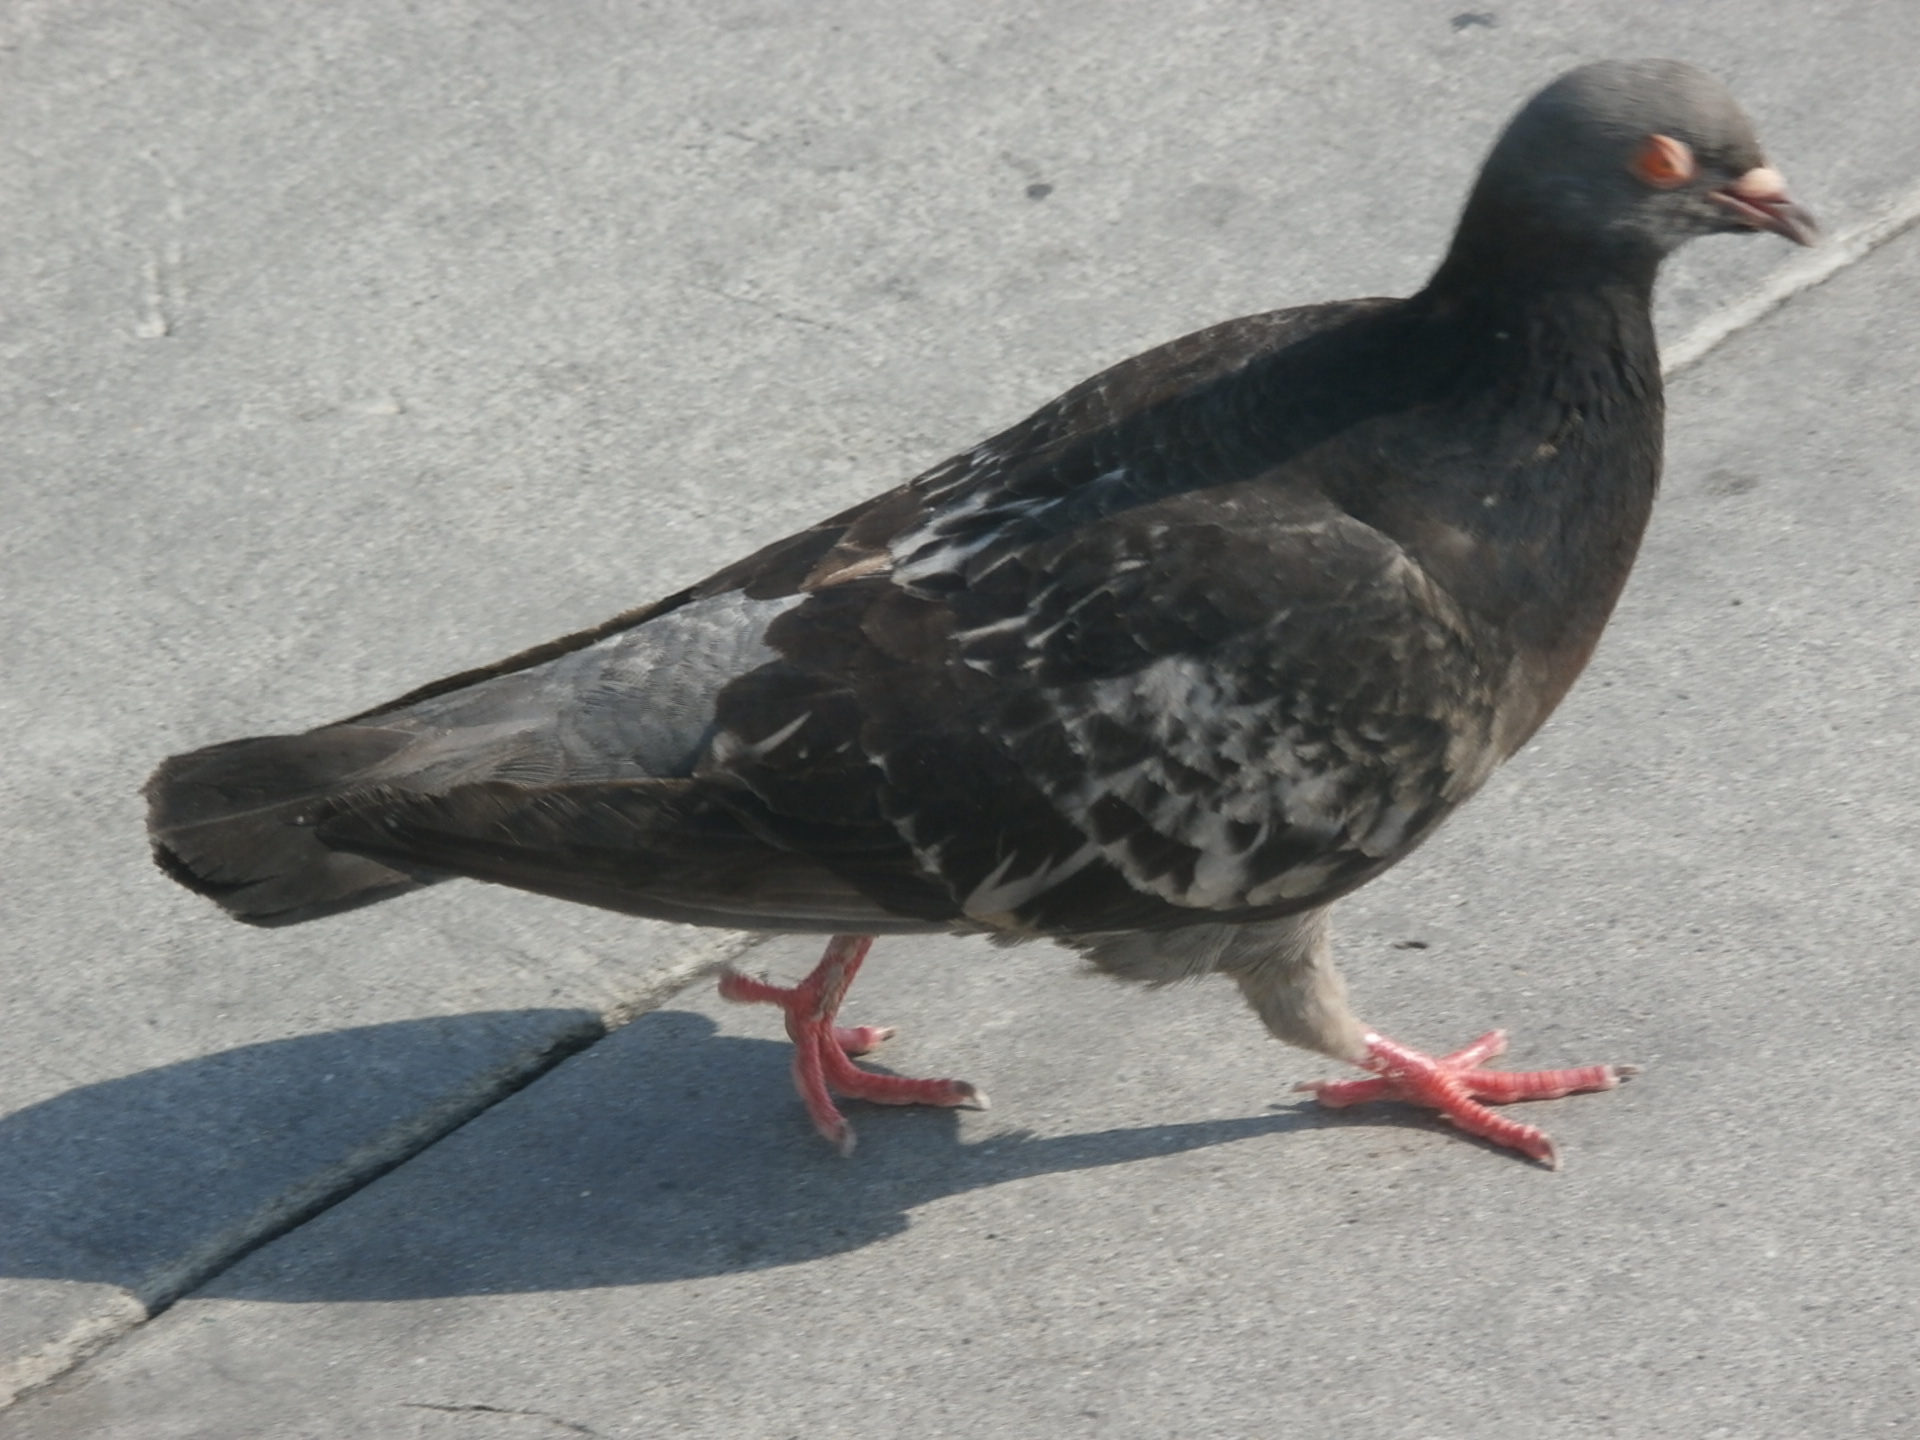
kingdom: Animalia
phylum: Chordata
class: Aves
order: Columbiformes
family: Columbidae
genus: Columba
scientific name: Columba livia
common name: Rock pigeon
